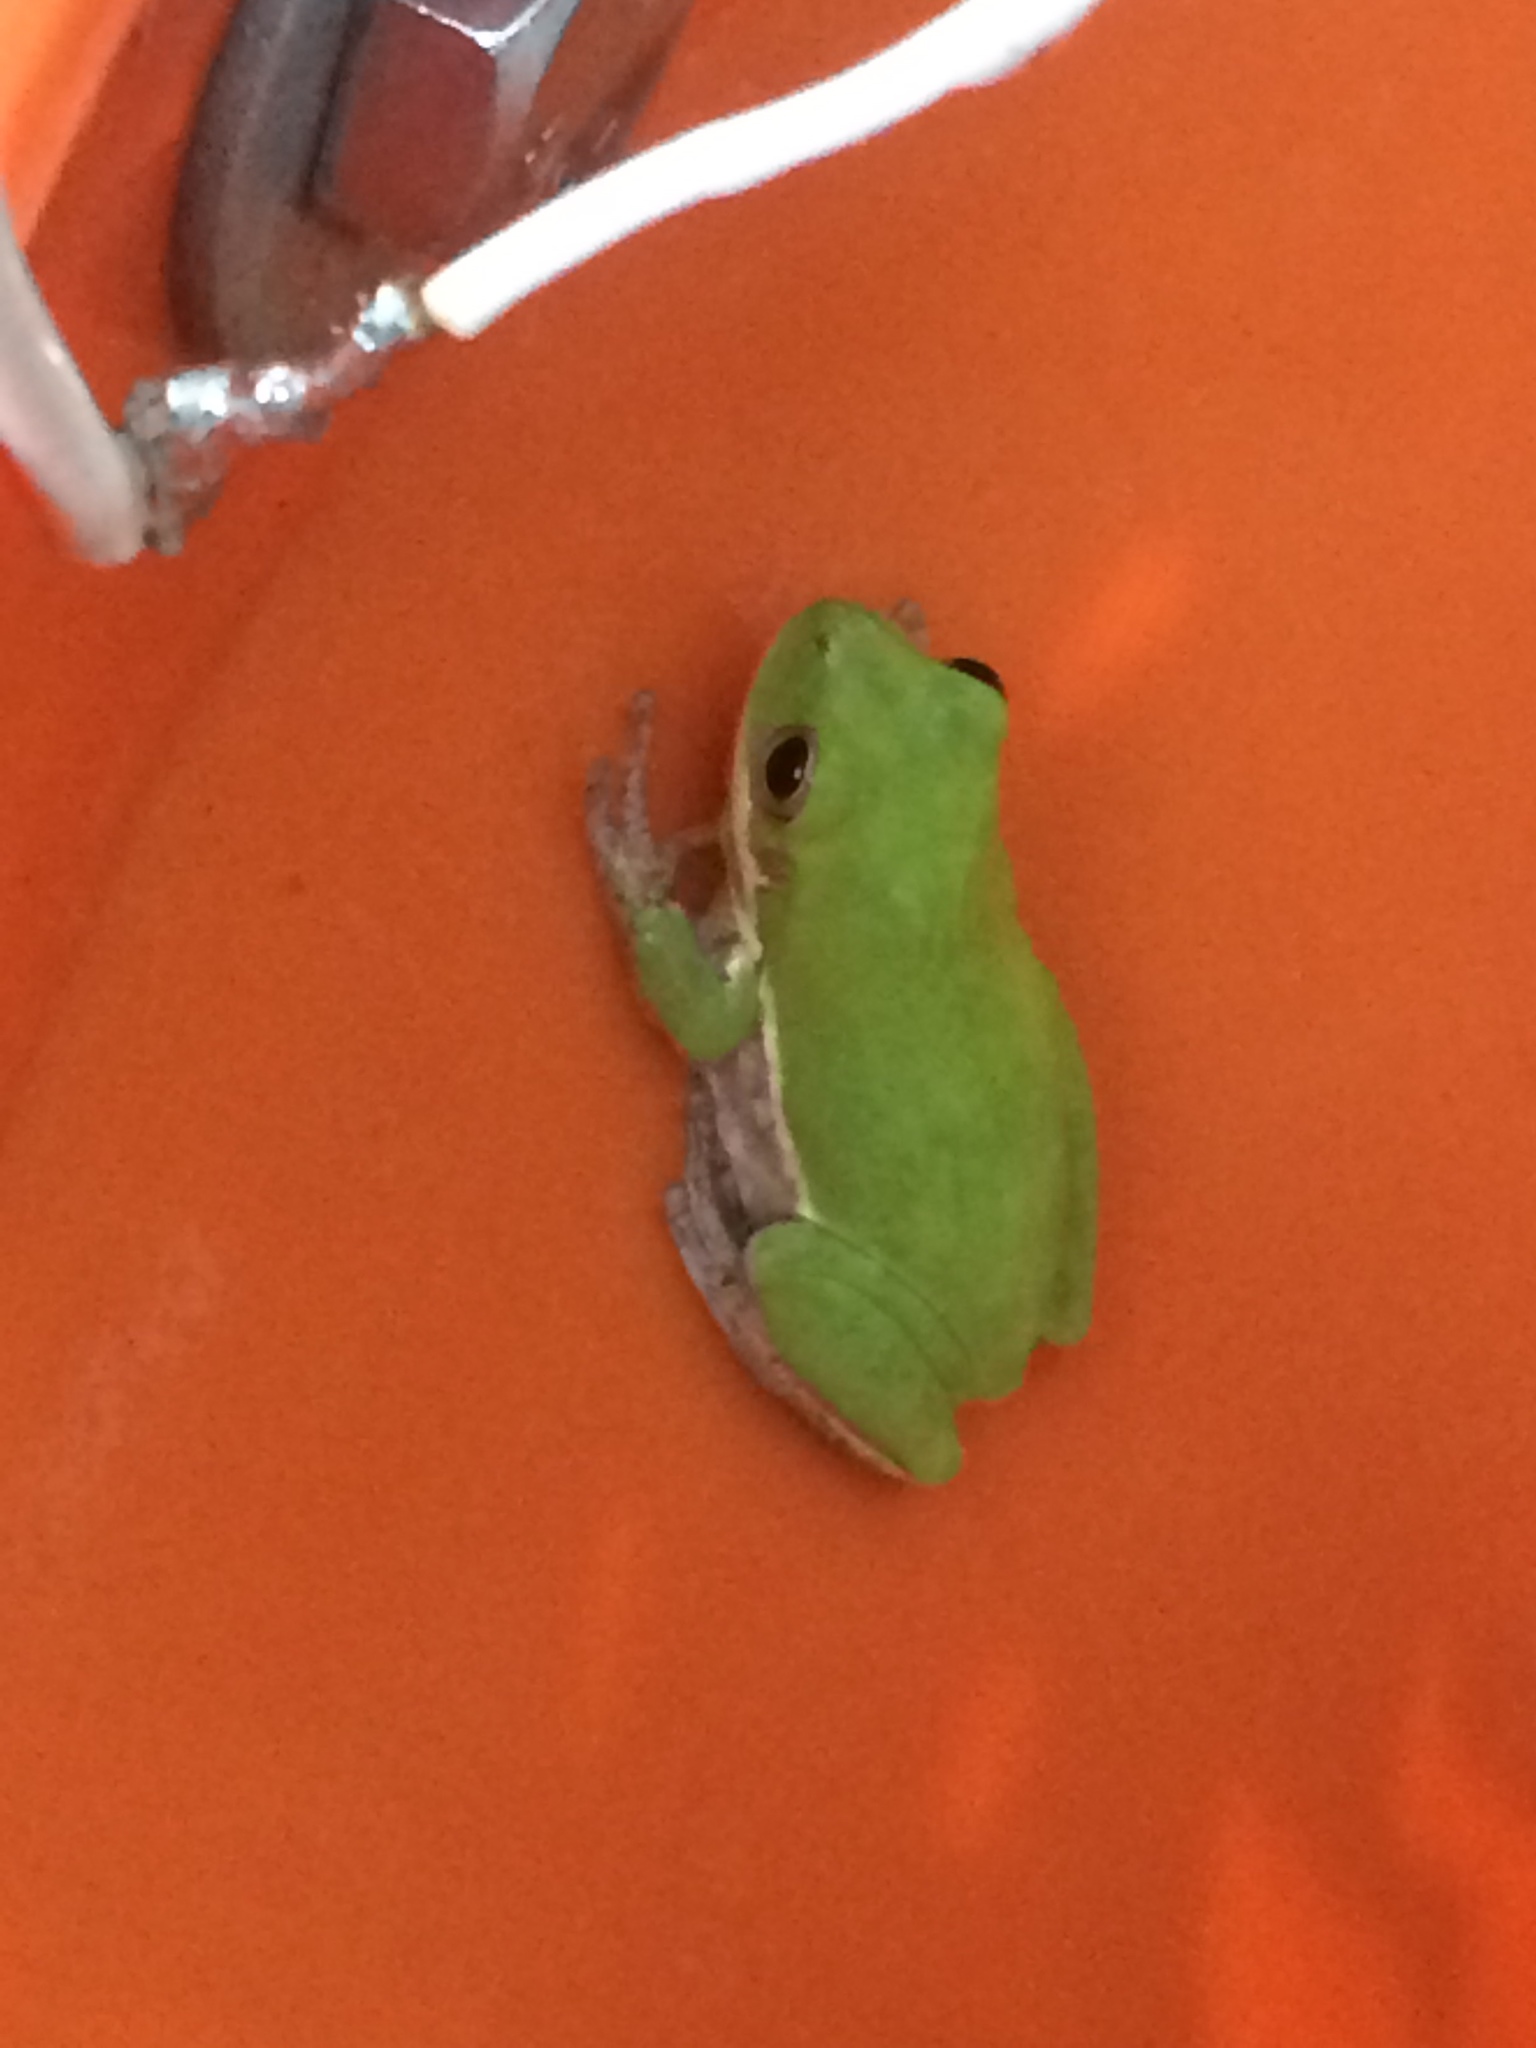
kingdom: Animalia
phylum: Chordata
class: Amphibia
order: Anura
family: Hylidae
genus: Dryophytes
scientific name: Dryophytes squirellus
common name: Squirrel treefrog
